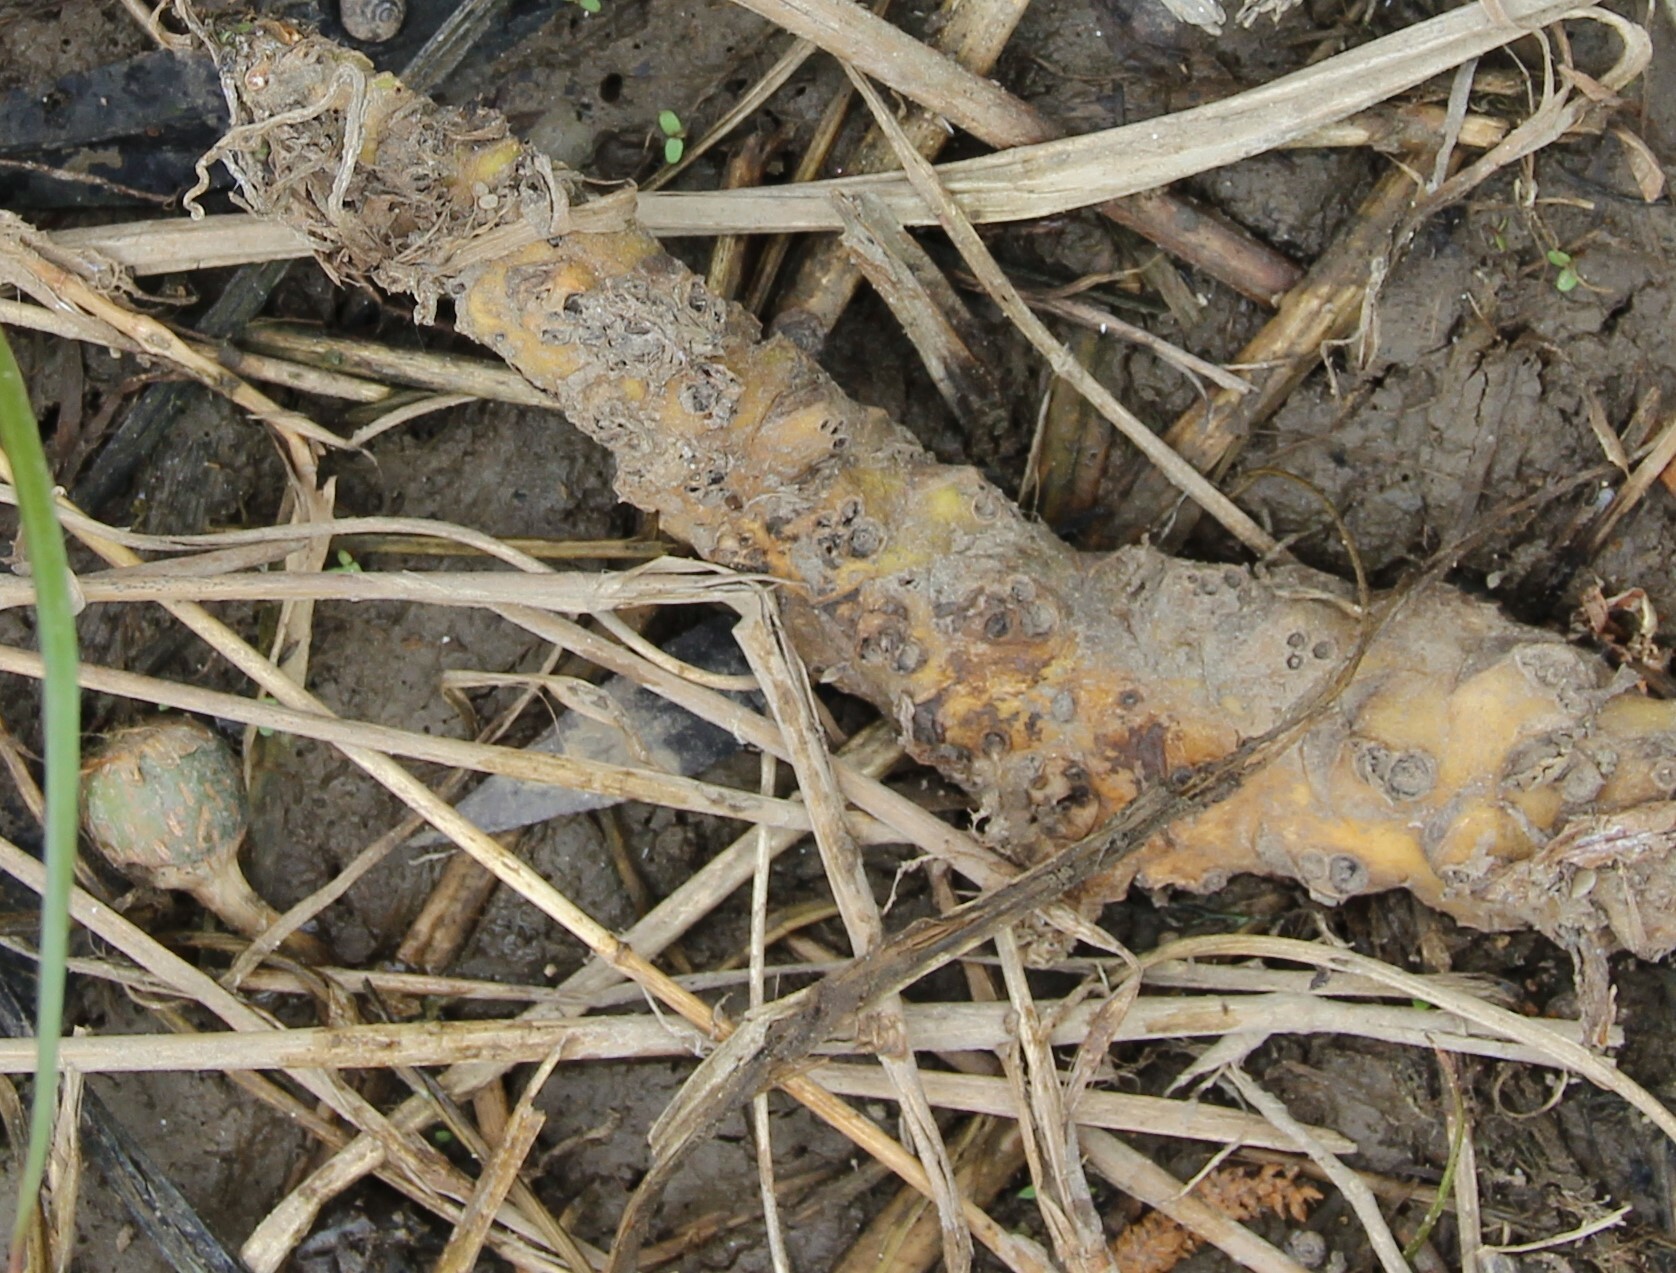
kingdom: Plantae
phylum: Tracheophyta
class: Magnoliopsida
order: Nymphaeales
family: Nymphaeaceae
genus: Nuphar
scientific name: Nuphar lutea
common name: Yellow water-lily
